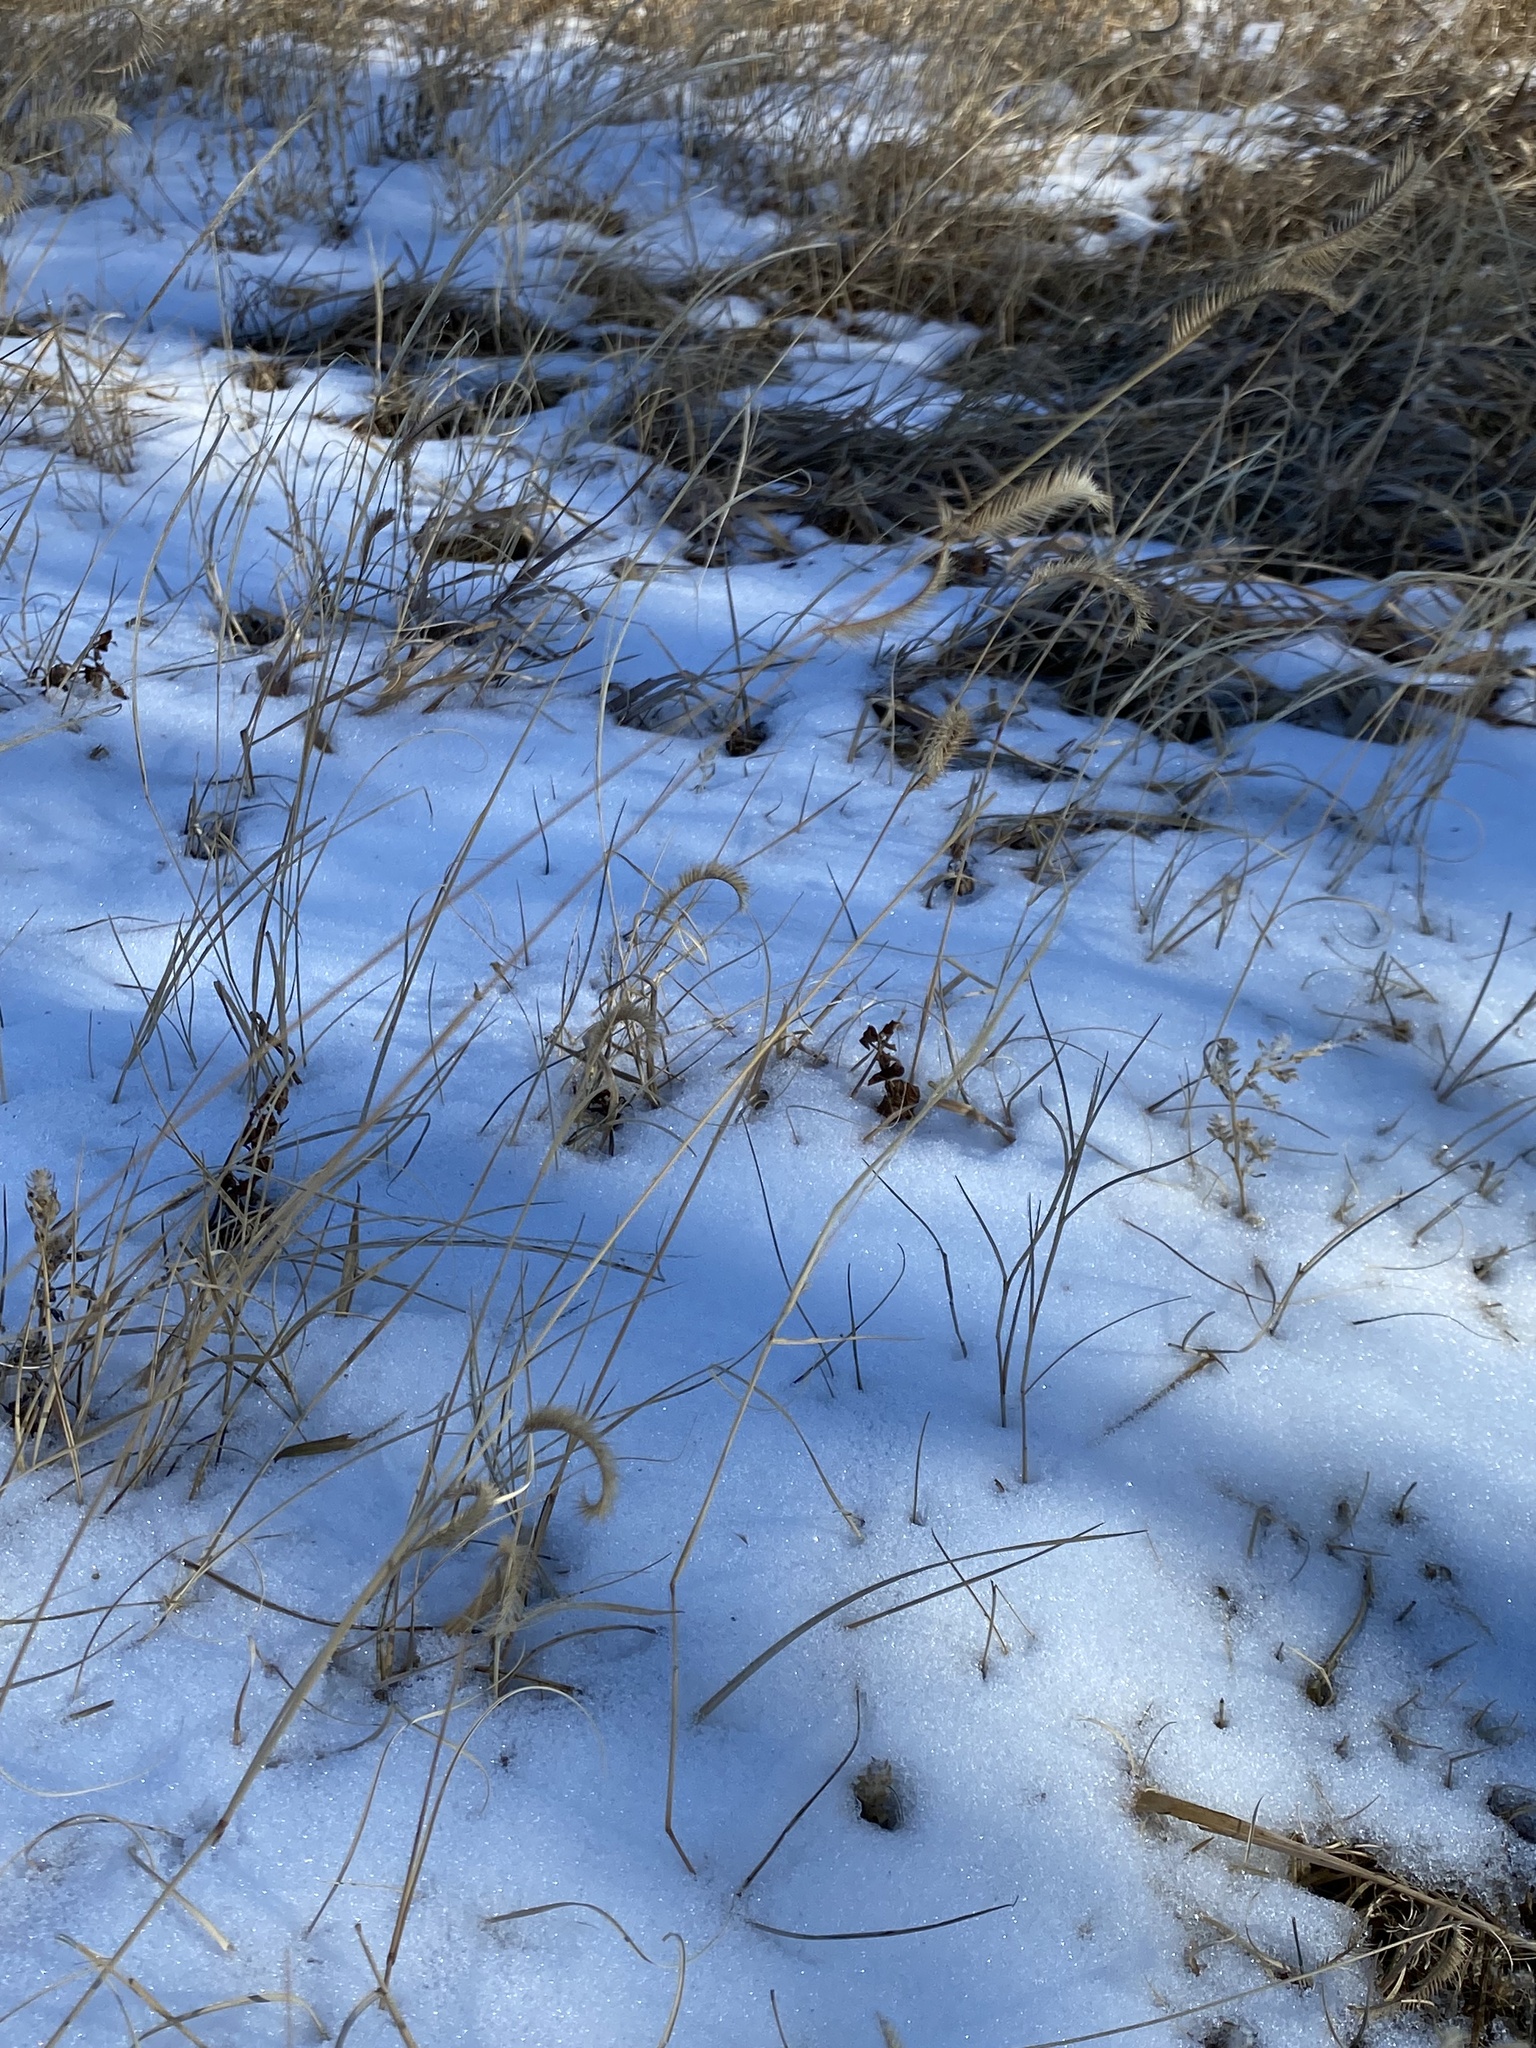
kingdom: Plantae
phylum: Tracheophyta
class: Liliopsida
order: Poales
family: Poaceae
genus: Bouteloua
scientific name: Bouteloua gracilis
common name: Blue grama
